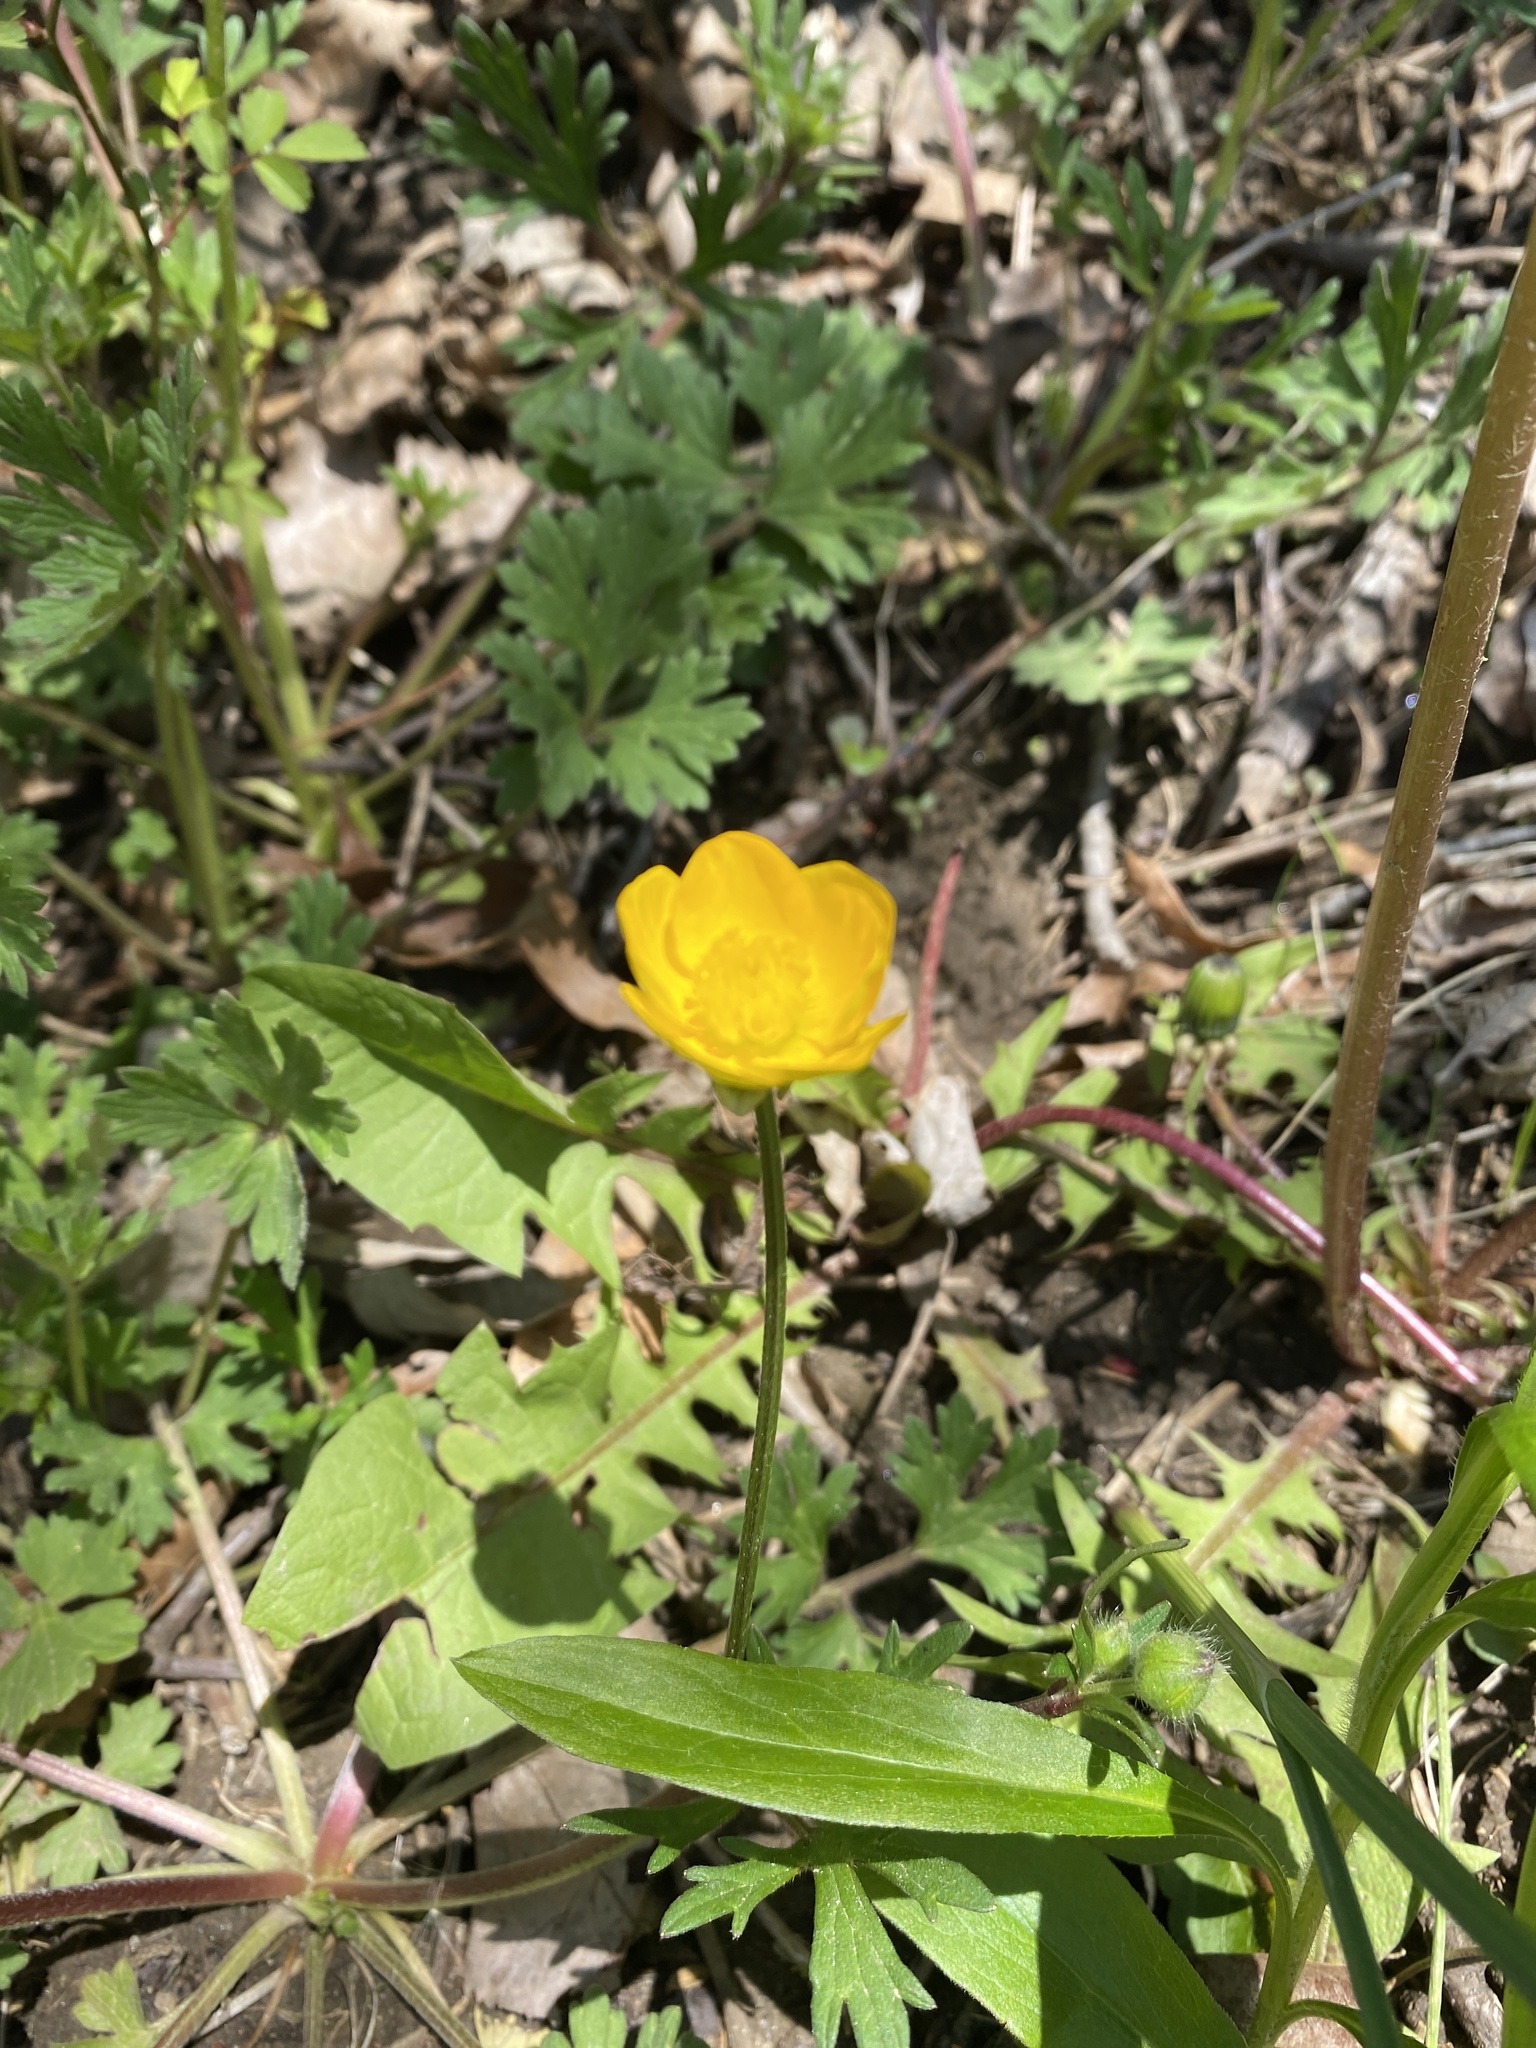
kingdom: Plantae
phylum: Tracheophyta
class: Magnoliopsida
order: Ranunculales
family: Ranunculaceae
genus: Ranunculus
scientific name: Ranunculus bulbosus
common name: Bulbous buttercup
